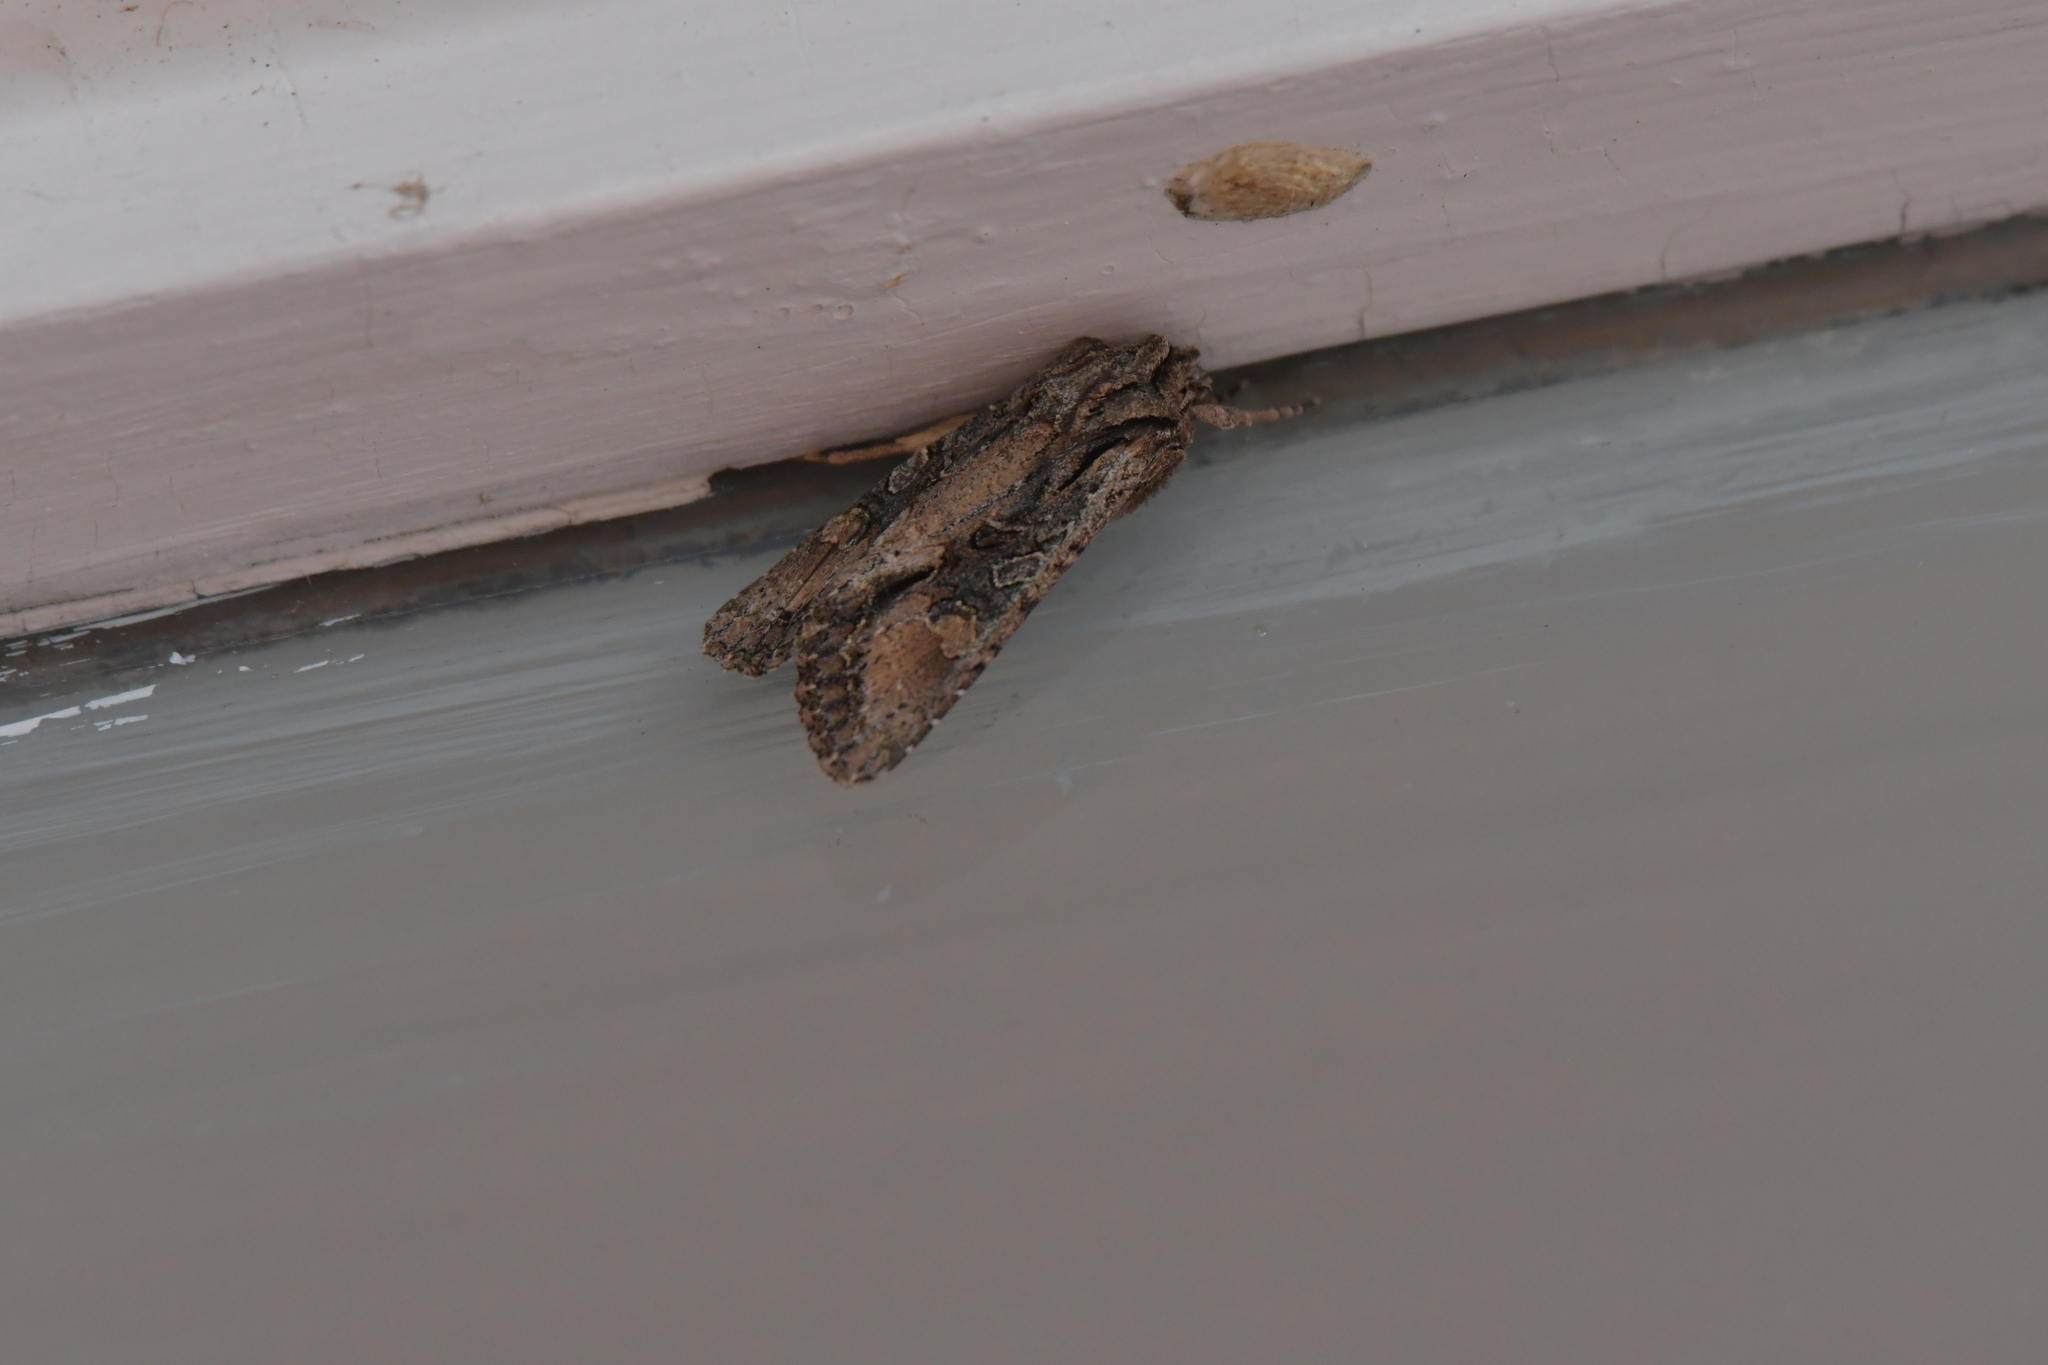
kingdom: Animalia
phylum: Arthropoda
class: Insecta
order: Lepidoptera
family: Noctuidae
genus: Ichneutica
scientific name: Ichneutica mutans
